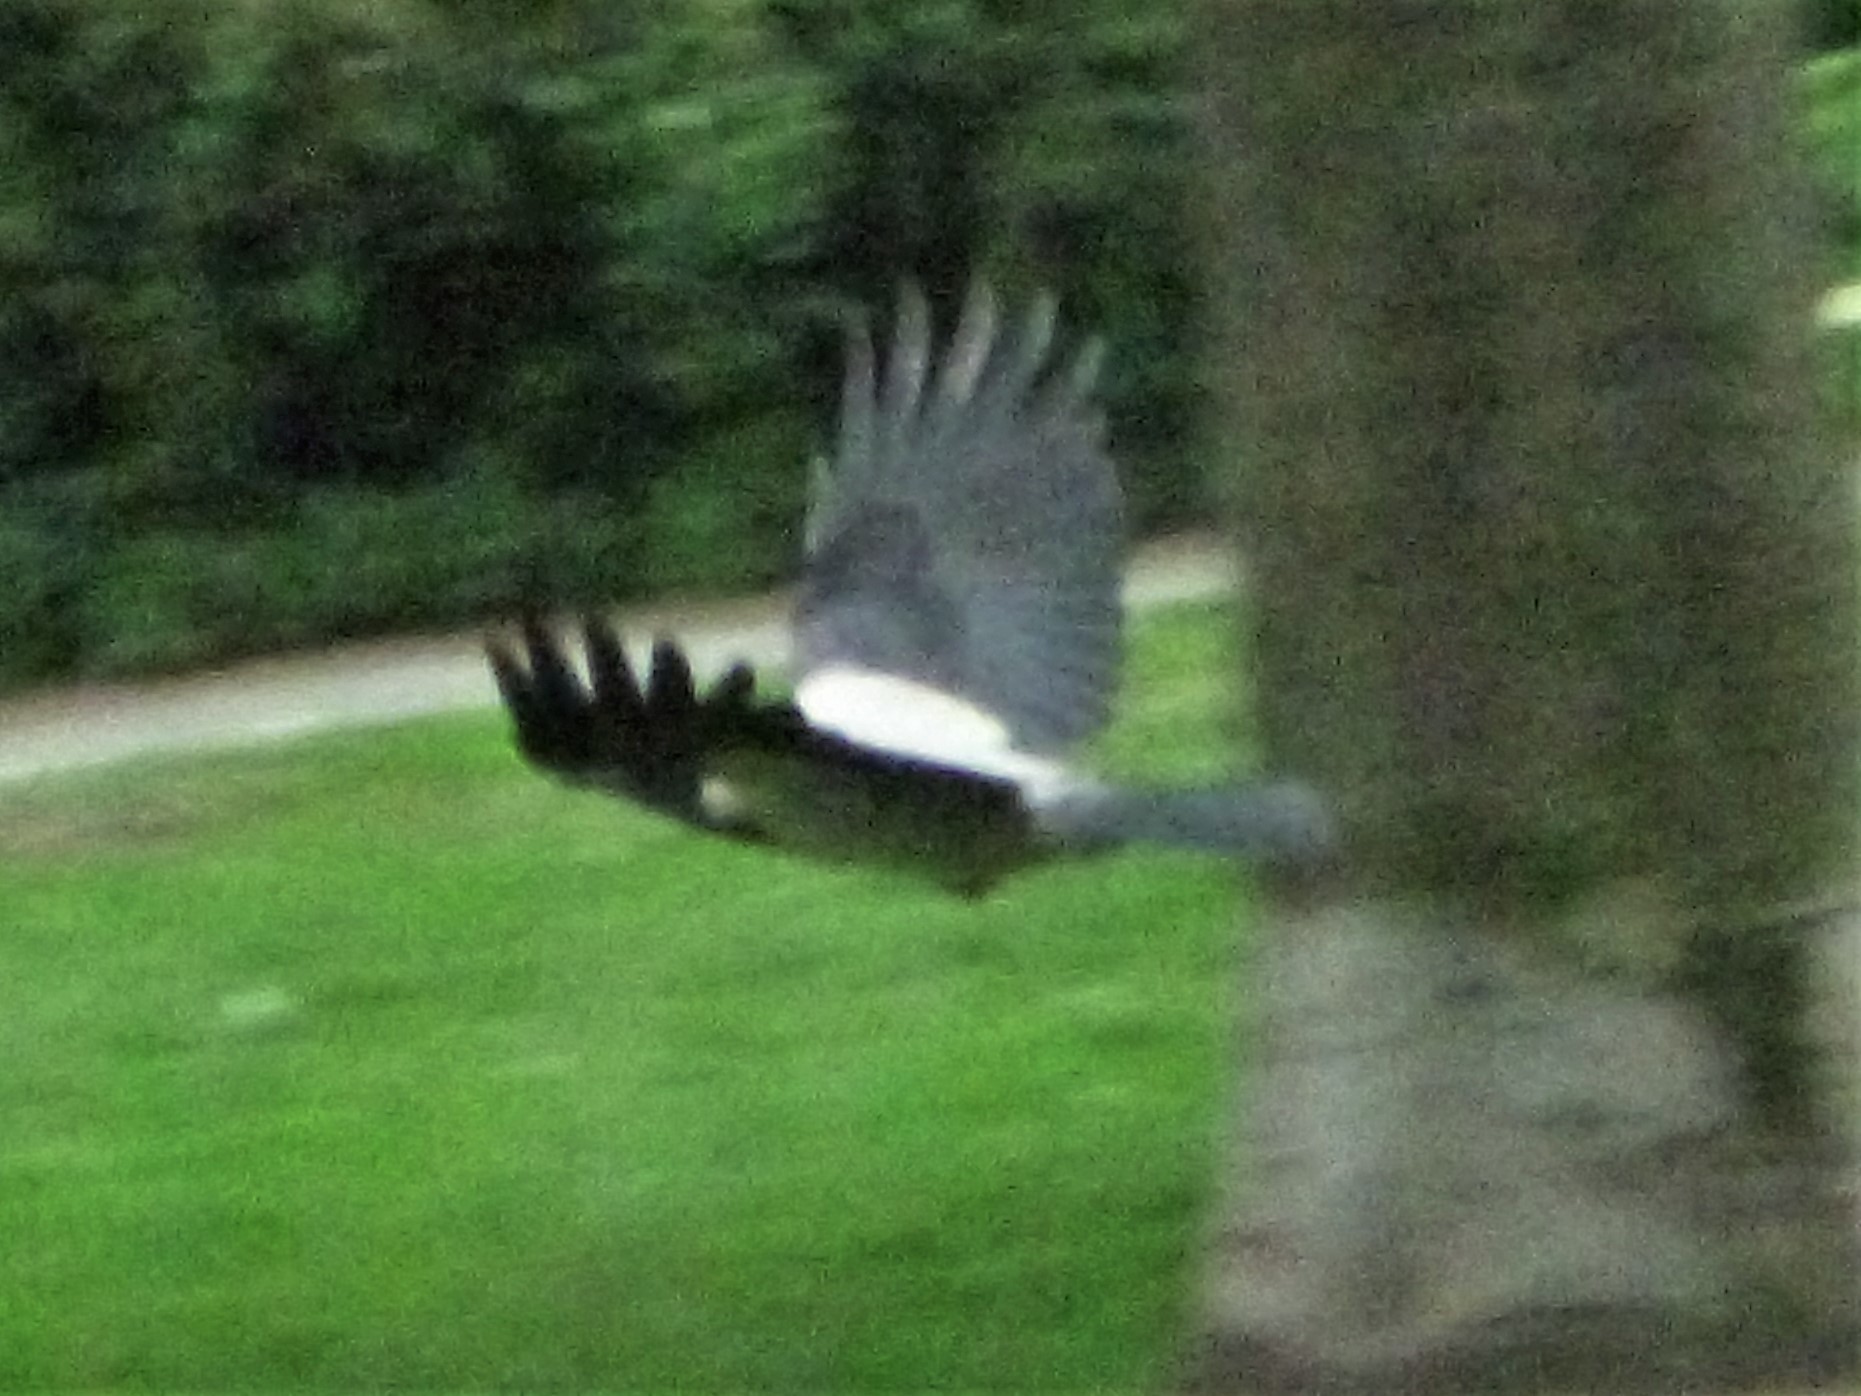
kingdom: Animalia
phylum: Chordata
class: Aves
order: Passeriformes
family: Corvidae
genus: Corvus
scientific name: Corvus cornix
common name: Hooded crow
